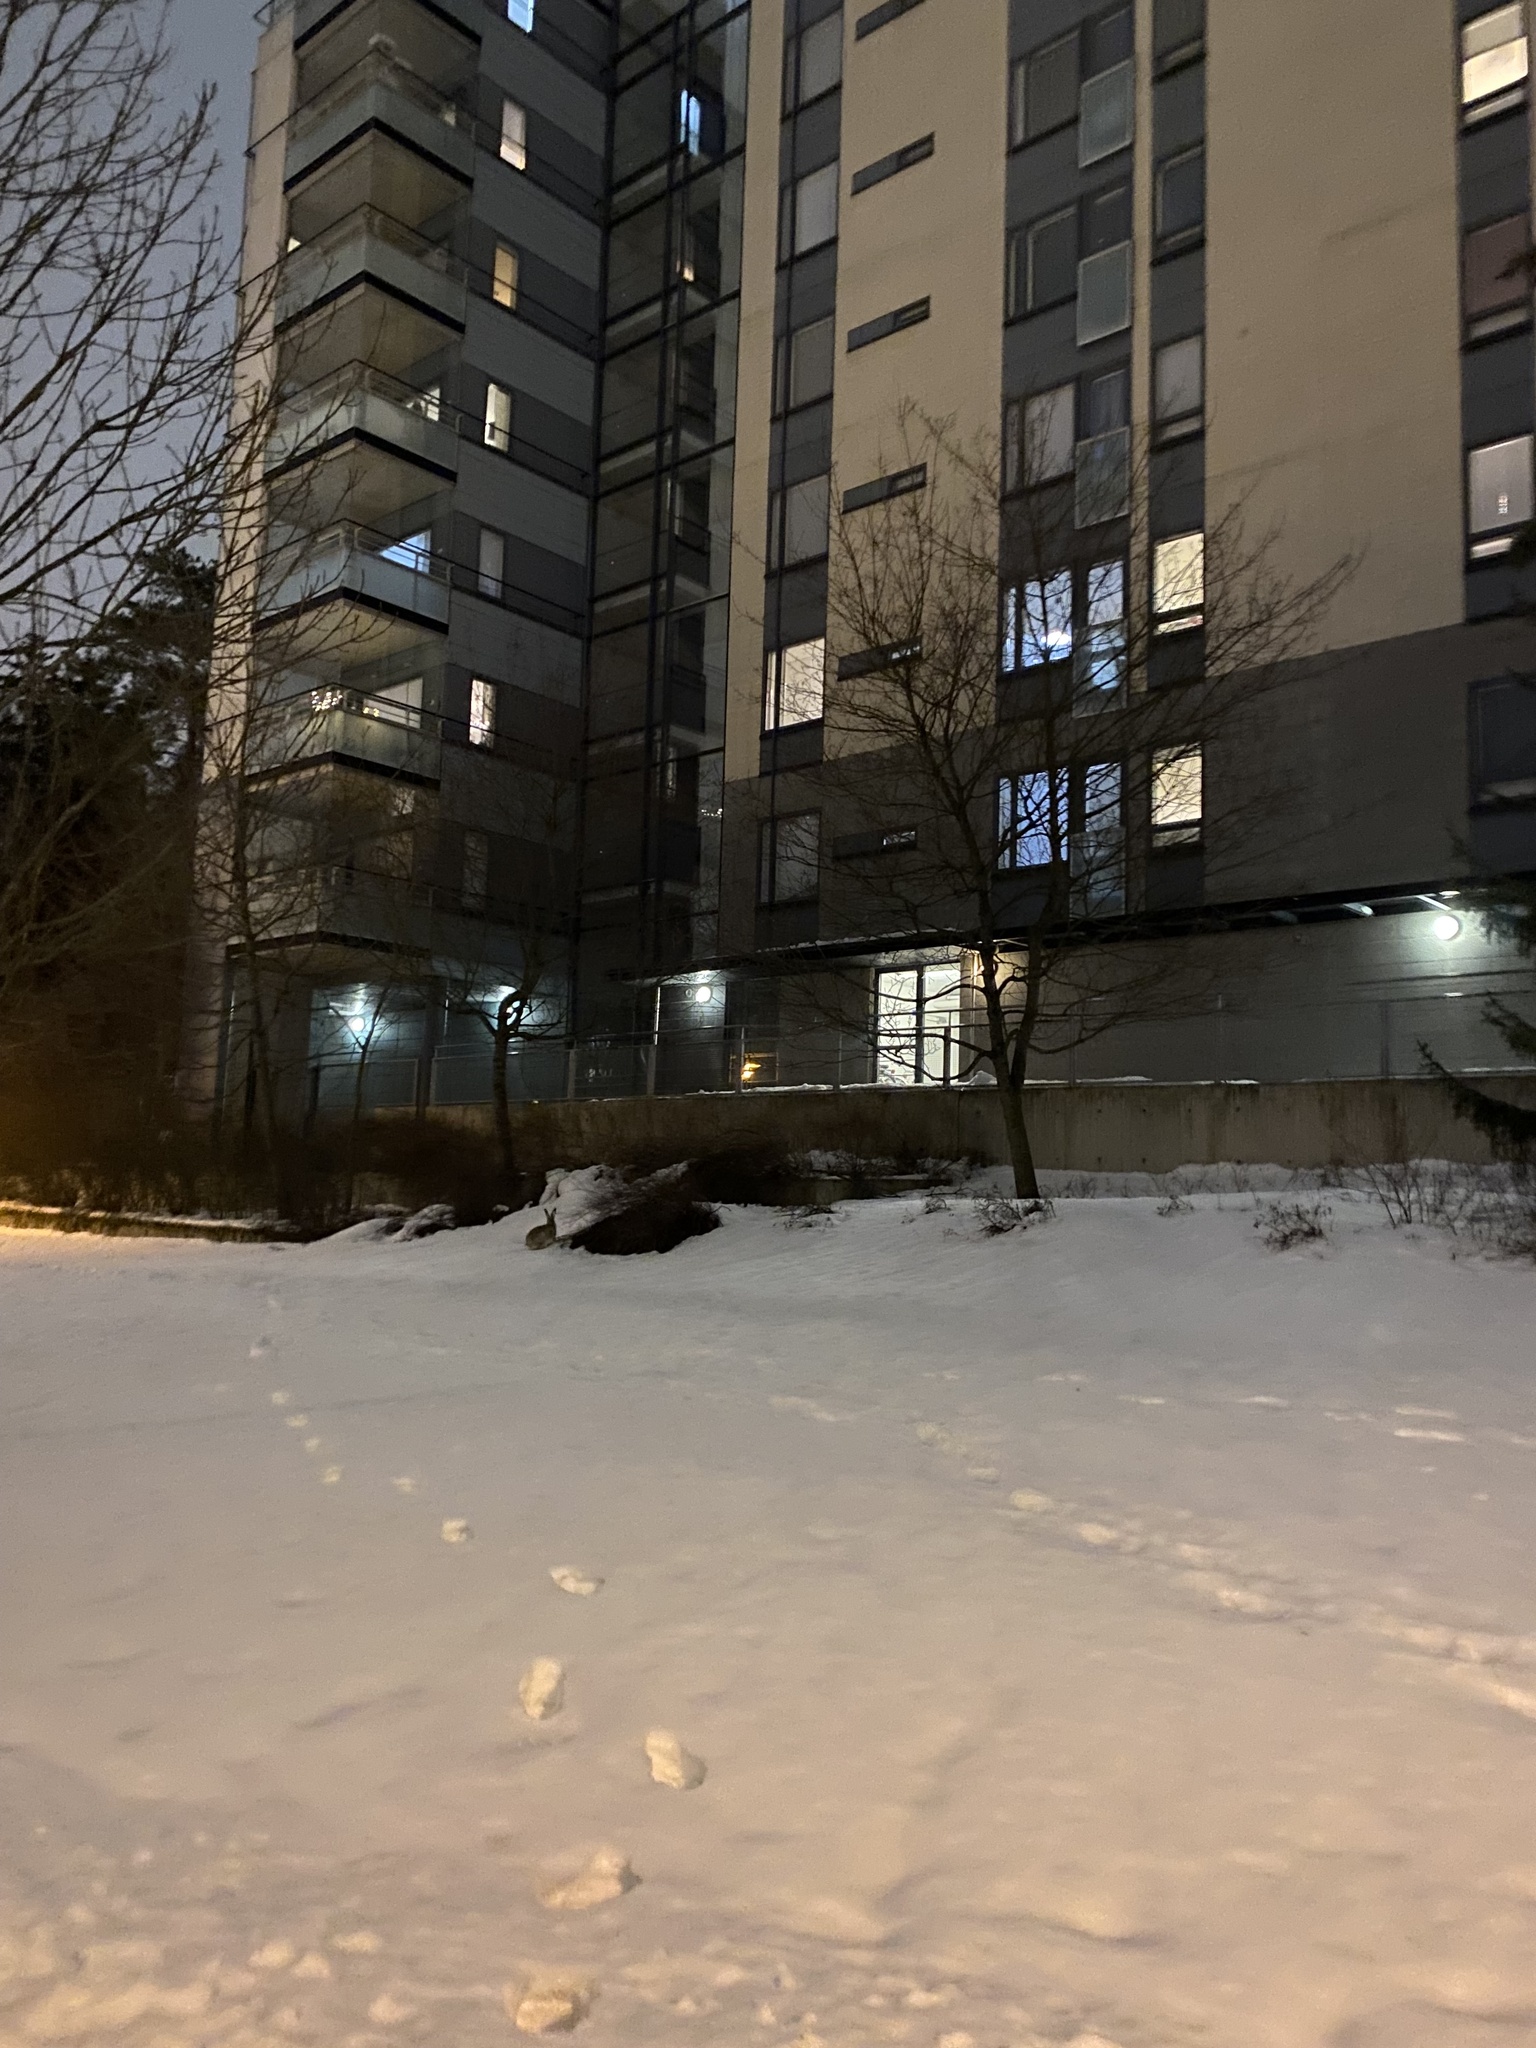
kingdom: Animalia
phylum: Chordata
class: Mammalia
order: Lagomorpha
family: Leporidae
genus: Lepus
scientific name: Lepus europaeus
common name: European hare
